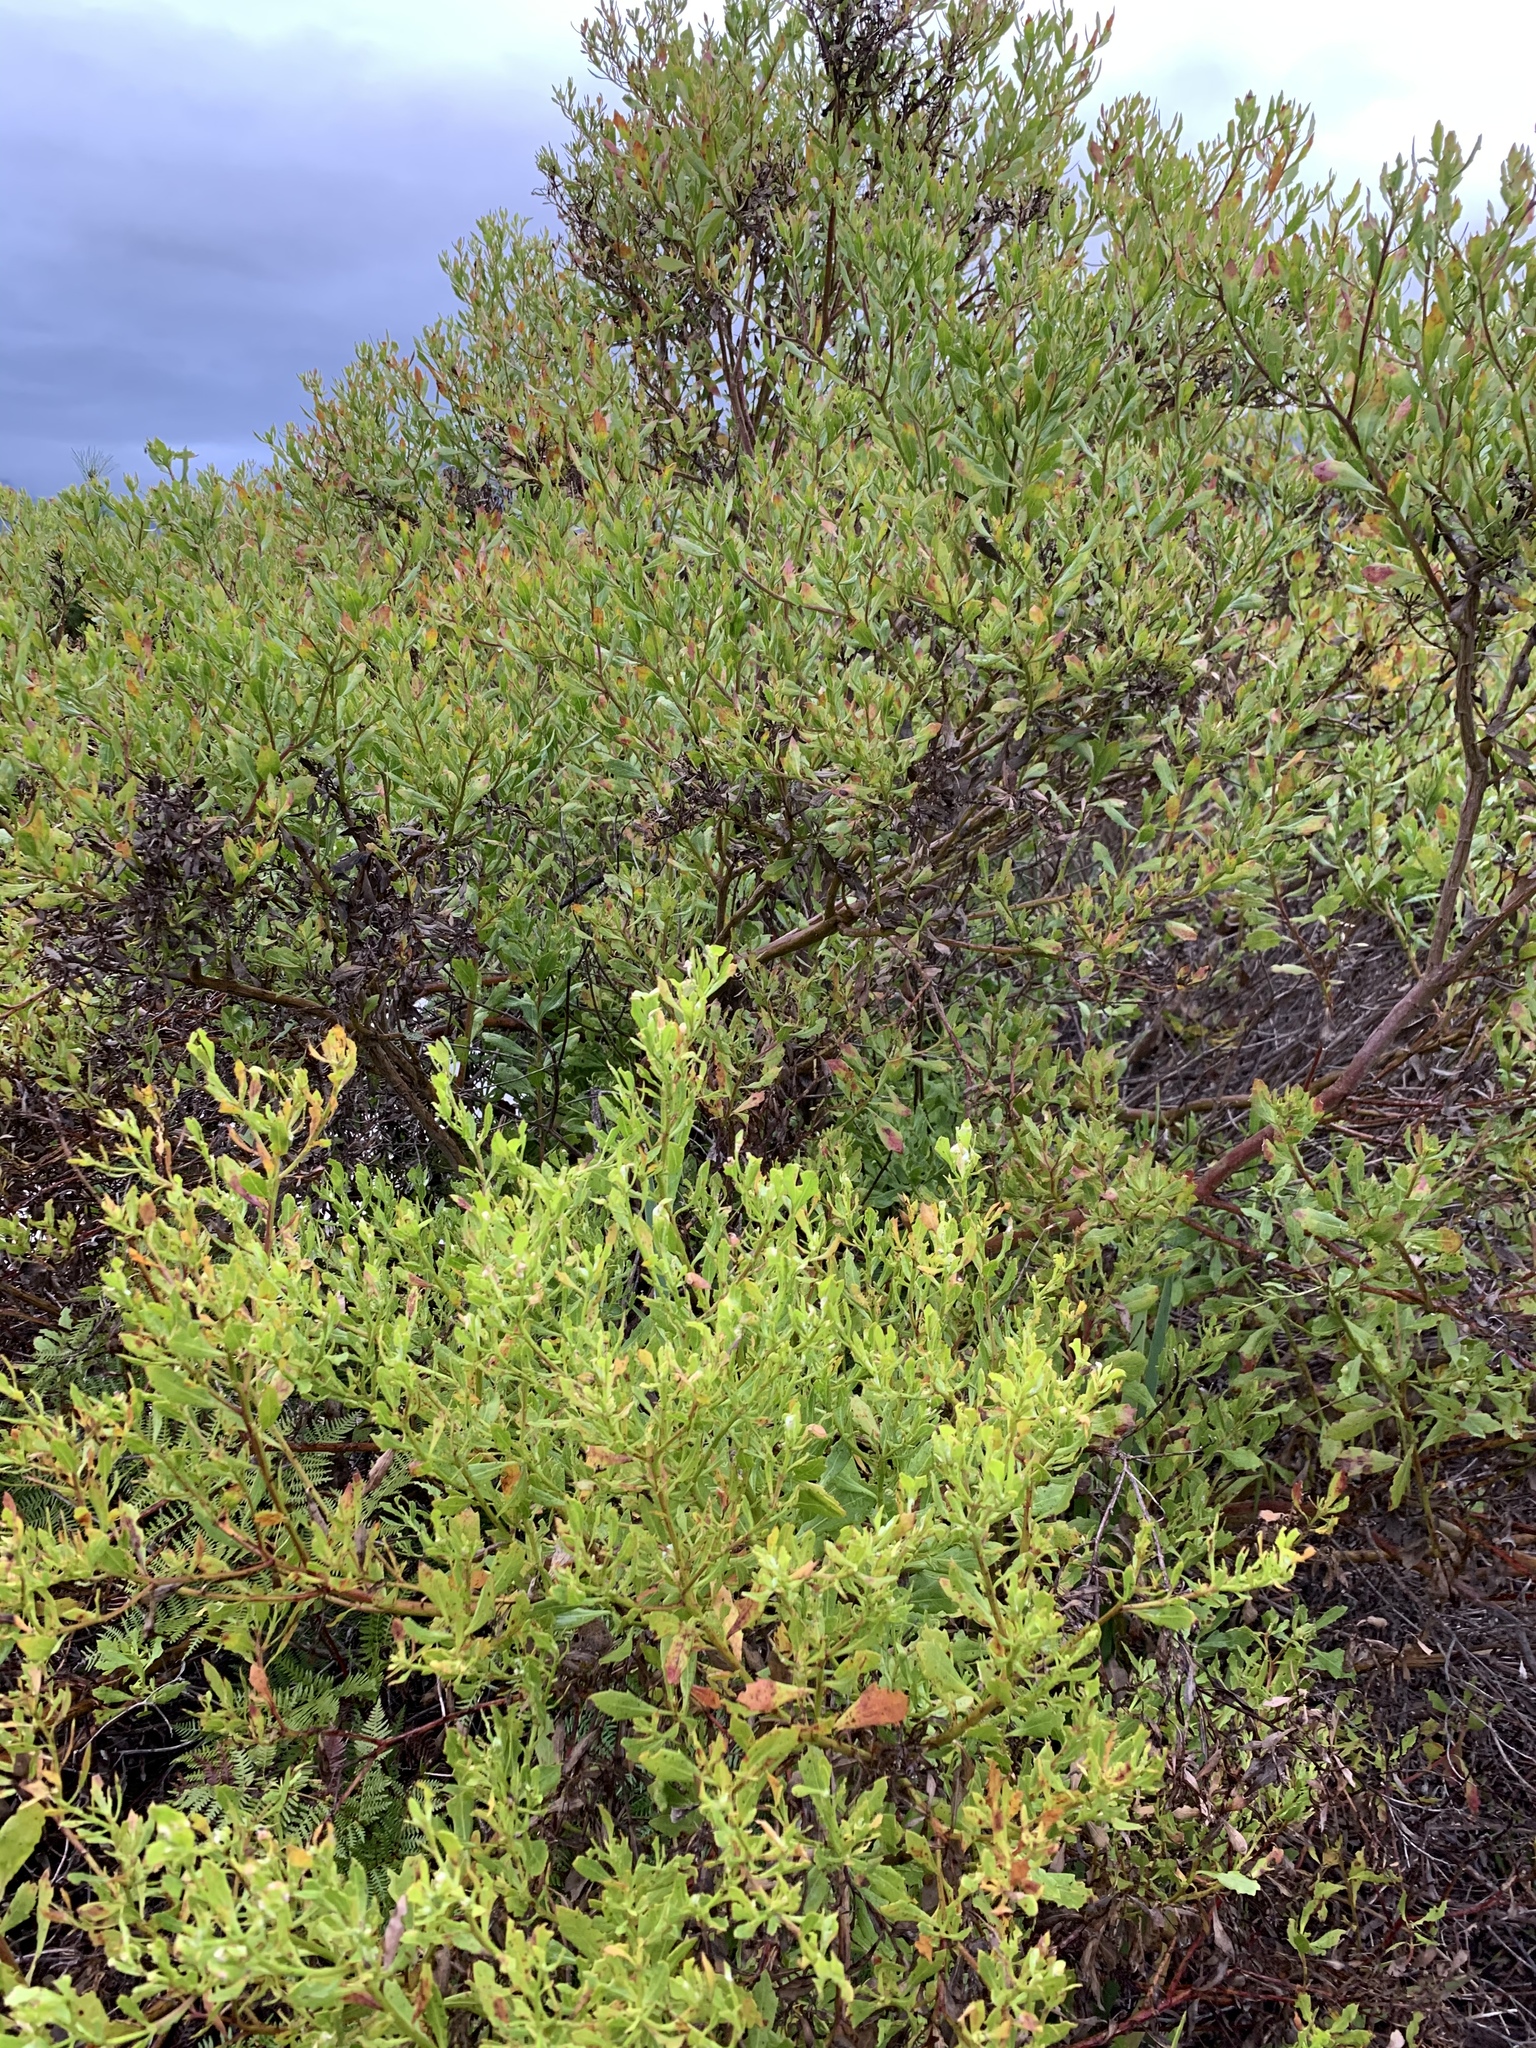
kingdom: Plantae
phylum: Tracheophyta
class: Magnoliopsida
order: Asterales
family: Asteraceae
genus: Osteospermum
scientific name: Osteospermum moniliferum
